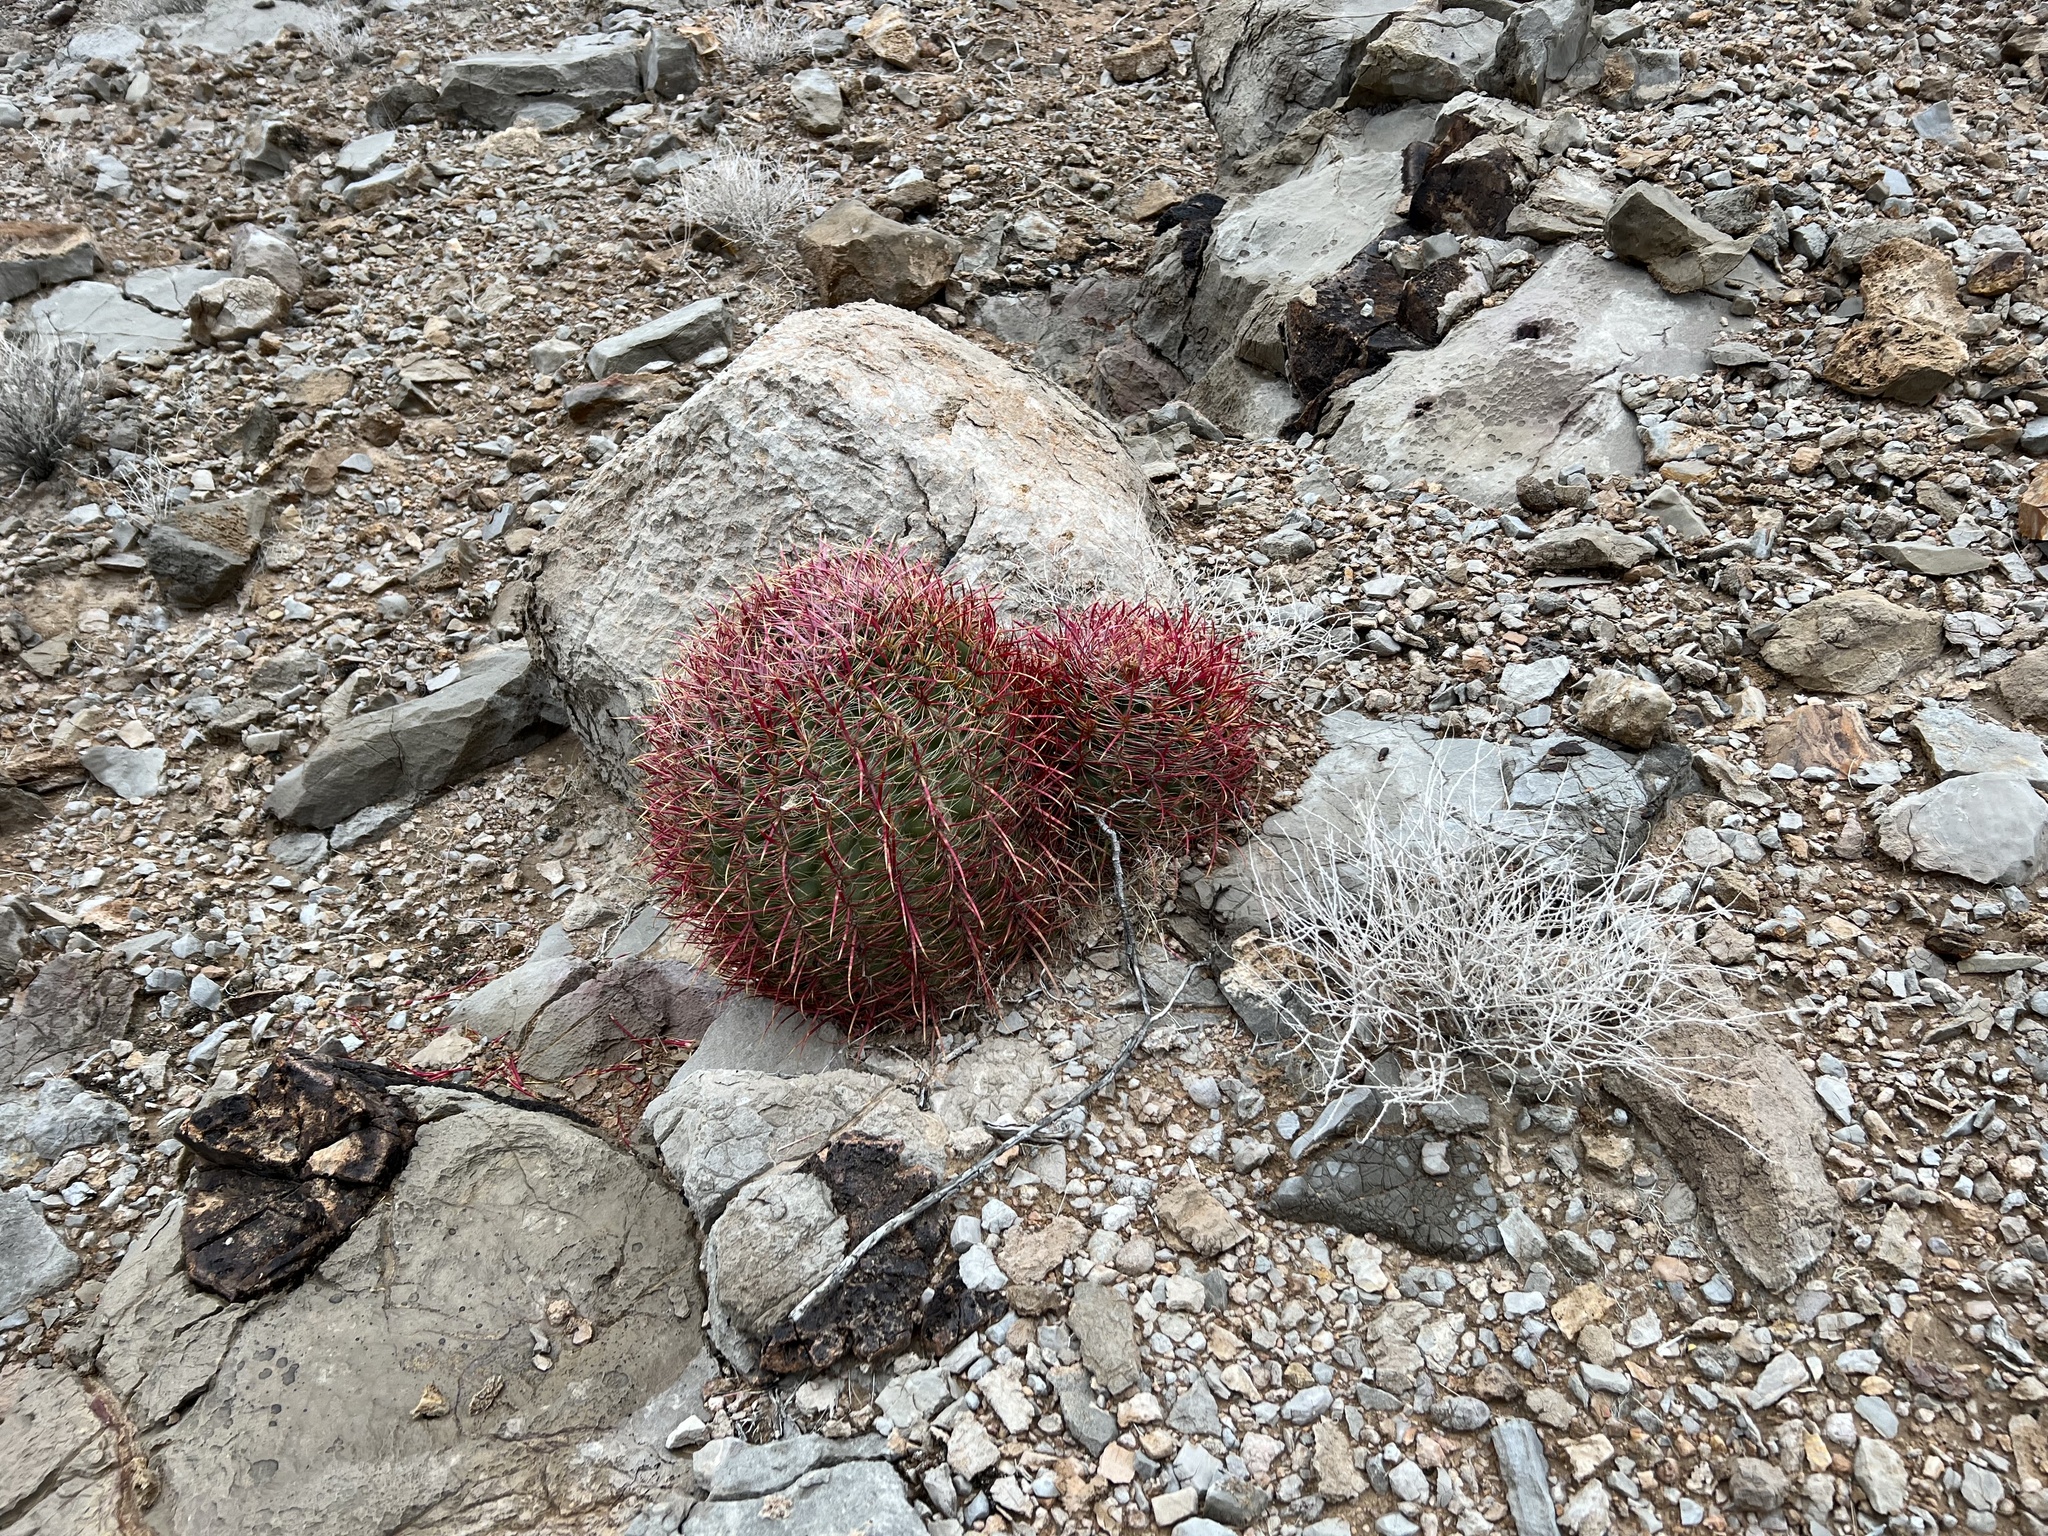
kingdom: Plantae
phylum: Tracheophyta
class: Magnoliopsida
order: Caryophyllales
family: Cactaceae
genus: Ferocactus
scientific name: Ferocactus cylindraceus
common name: California barrel cactus
